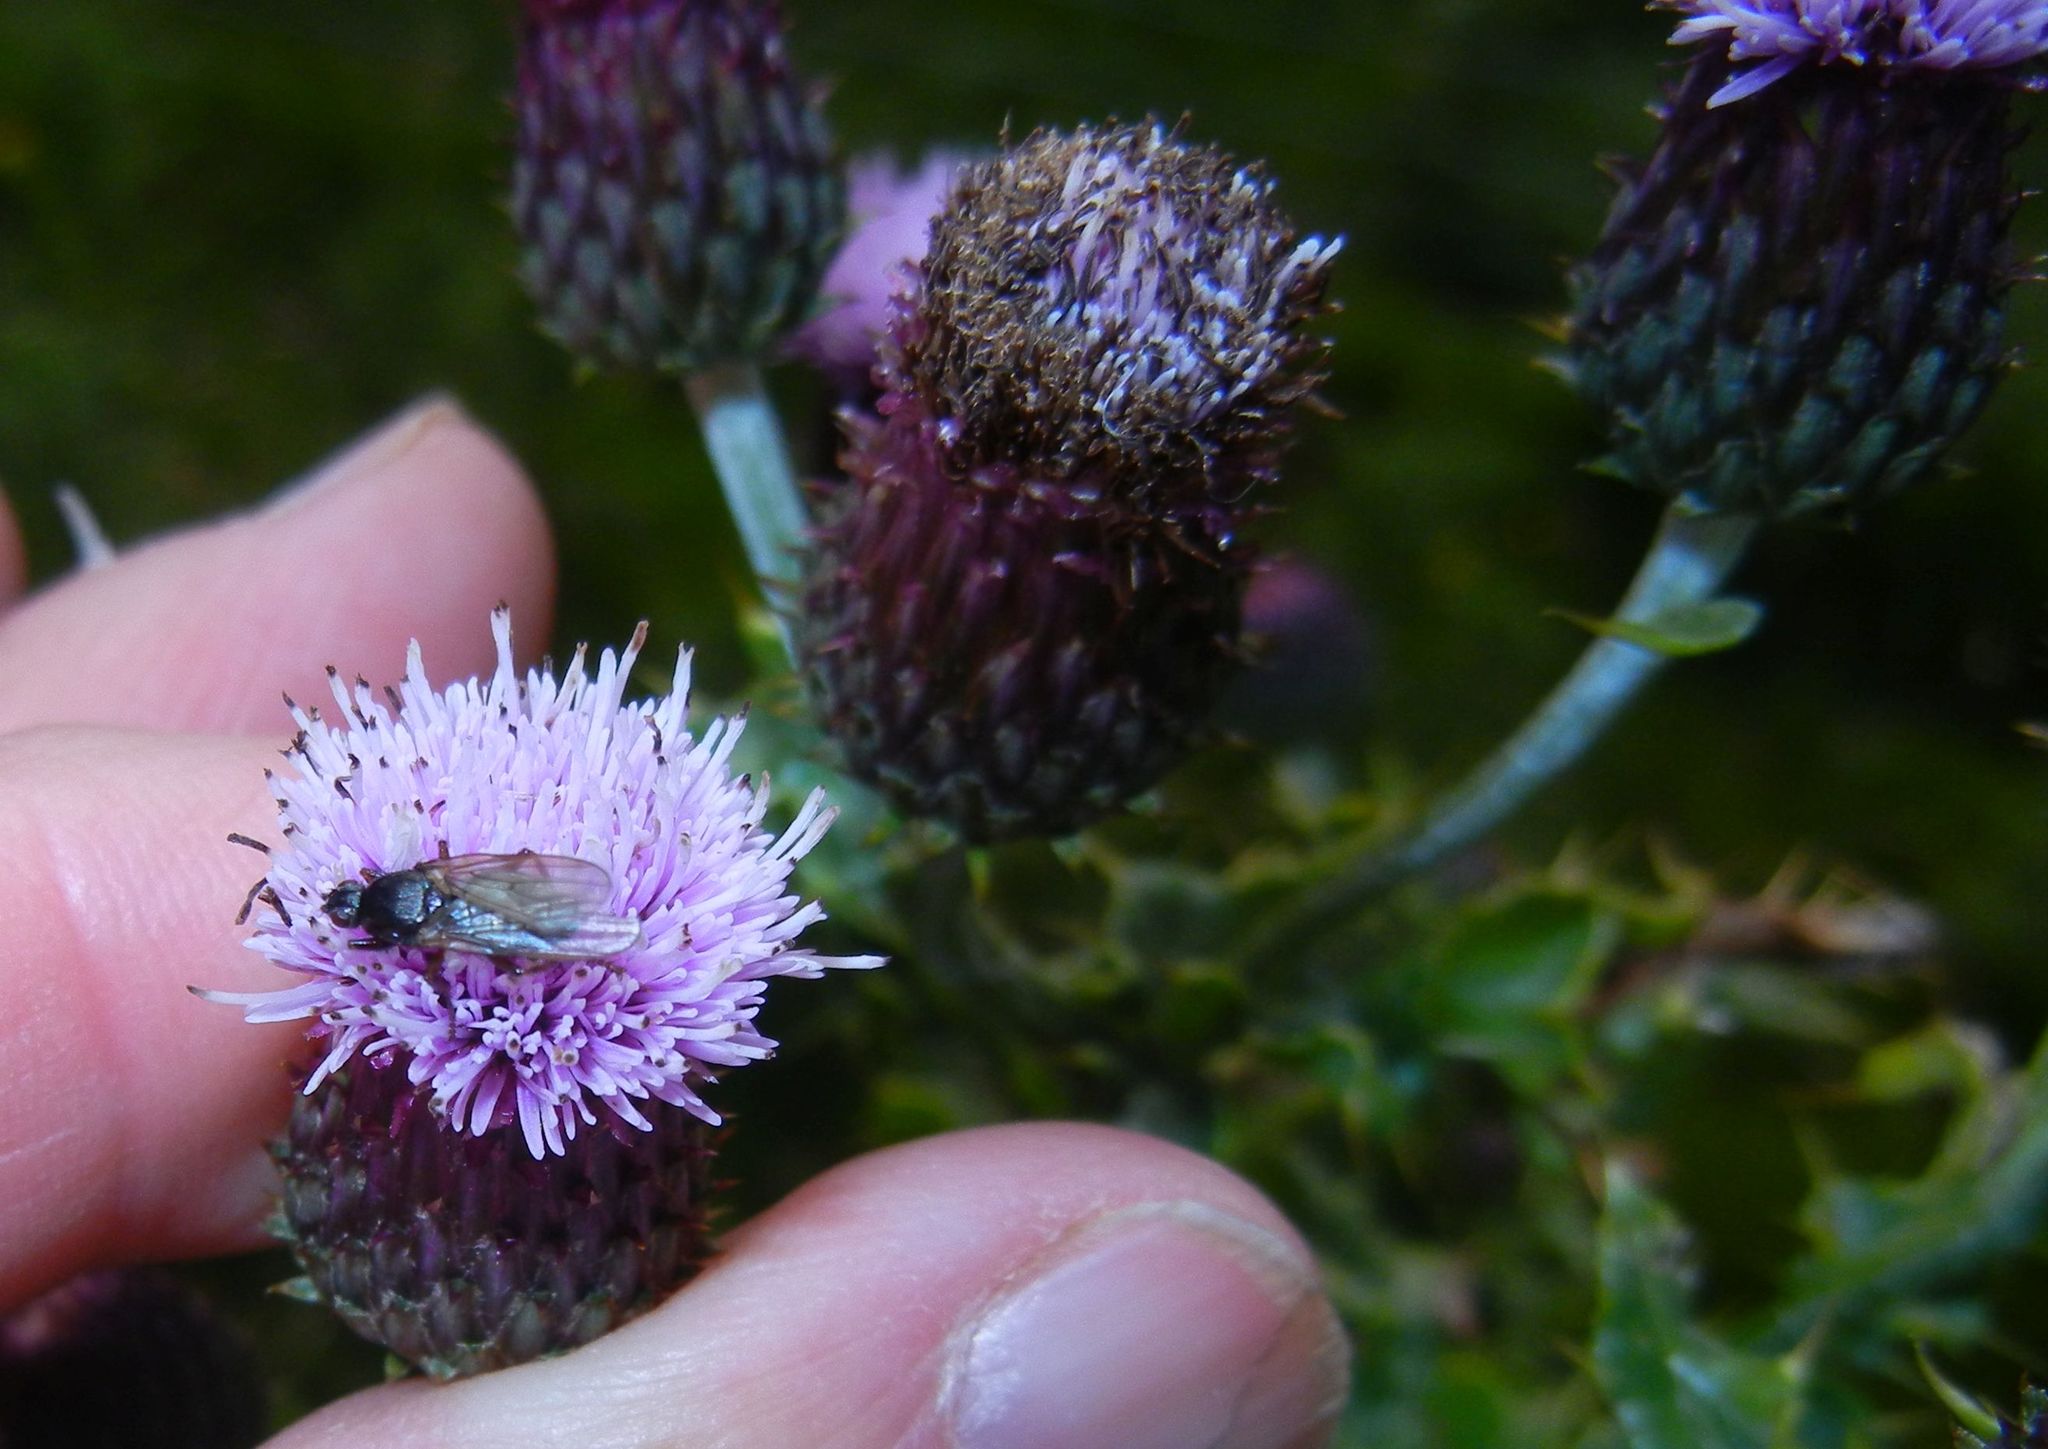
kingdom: Plantae
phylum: Tracheophyta
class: Magnoliopsida
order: Asterales
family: Asteraceae
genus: Cirsium
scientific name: Cirsium arvense
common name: Creeping thistle
